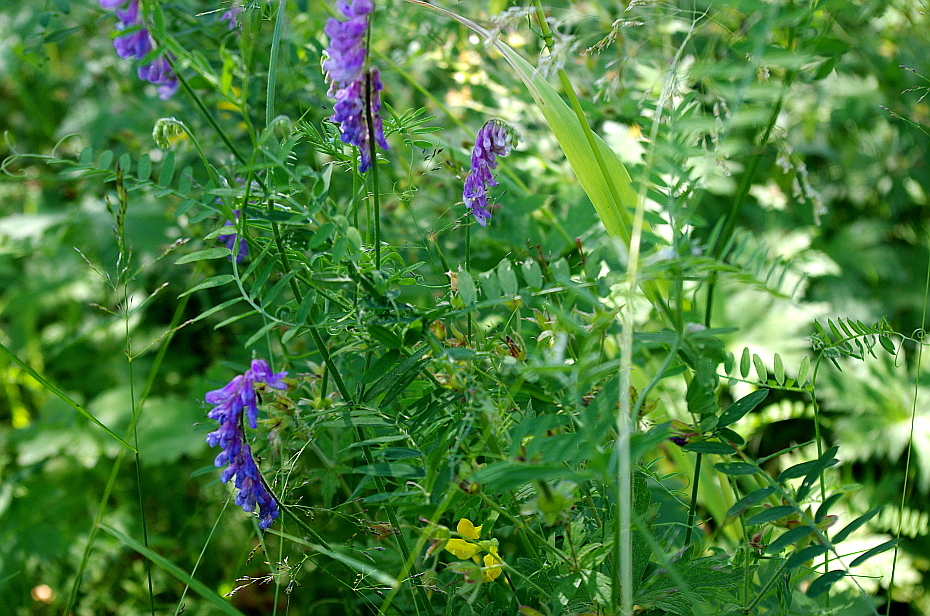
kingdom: Plantae
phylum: Tracheophyta
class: Magnoliopsida
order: Fabales
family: Fabaceae
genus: Vicia
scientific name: Vicia cracca
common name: Bird vetch
